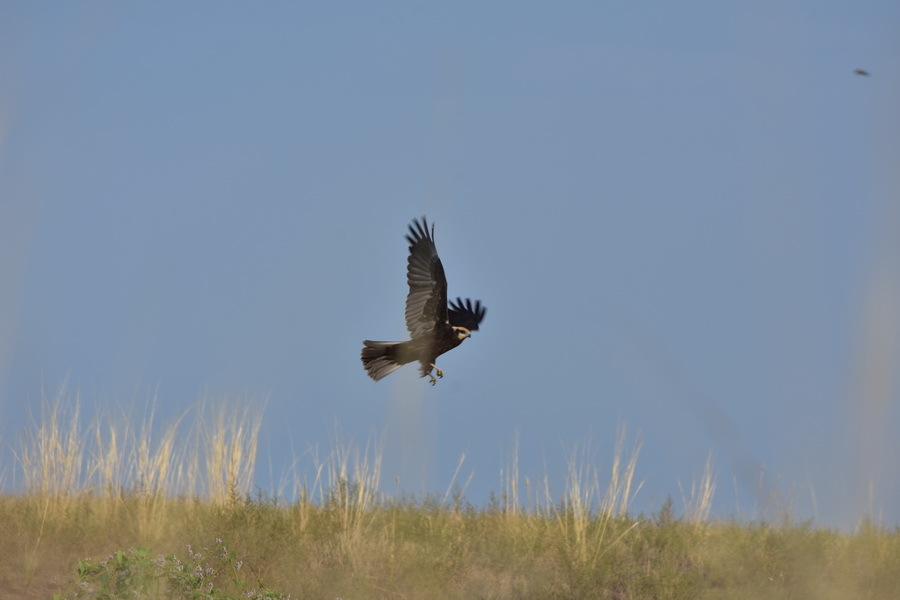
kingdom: Animalia
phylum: Chordata
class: Aves
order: Accipitriformes
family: Accipitridae
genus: Circus
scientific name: Circus aeruginosus
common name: Western marsh harrier
